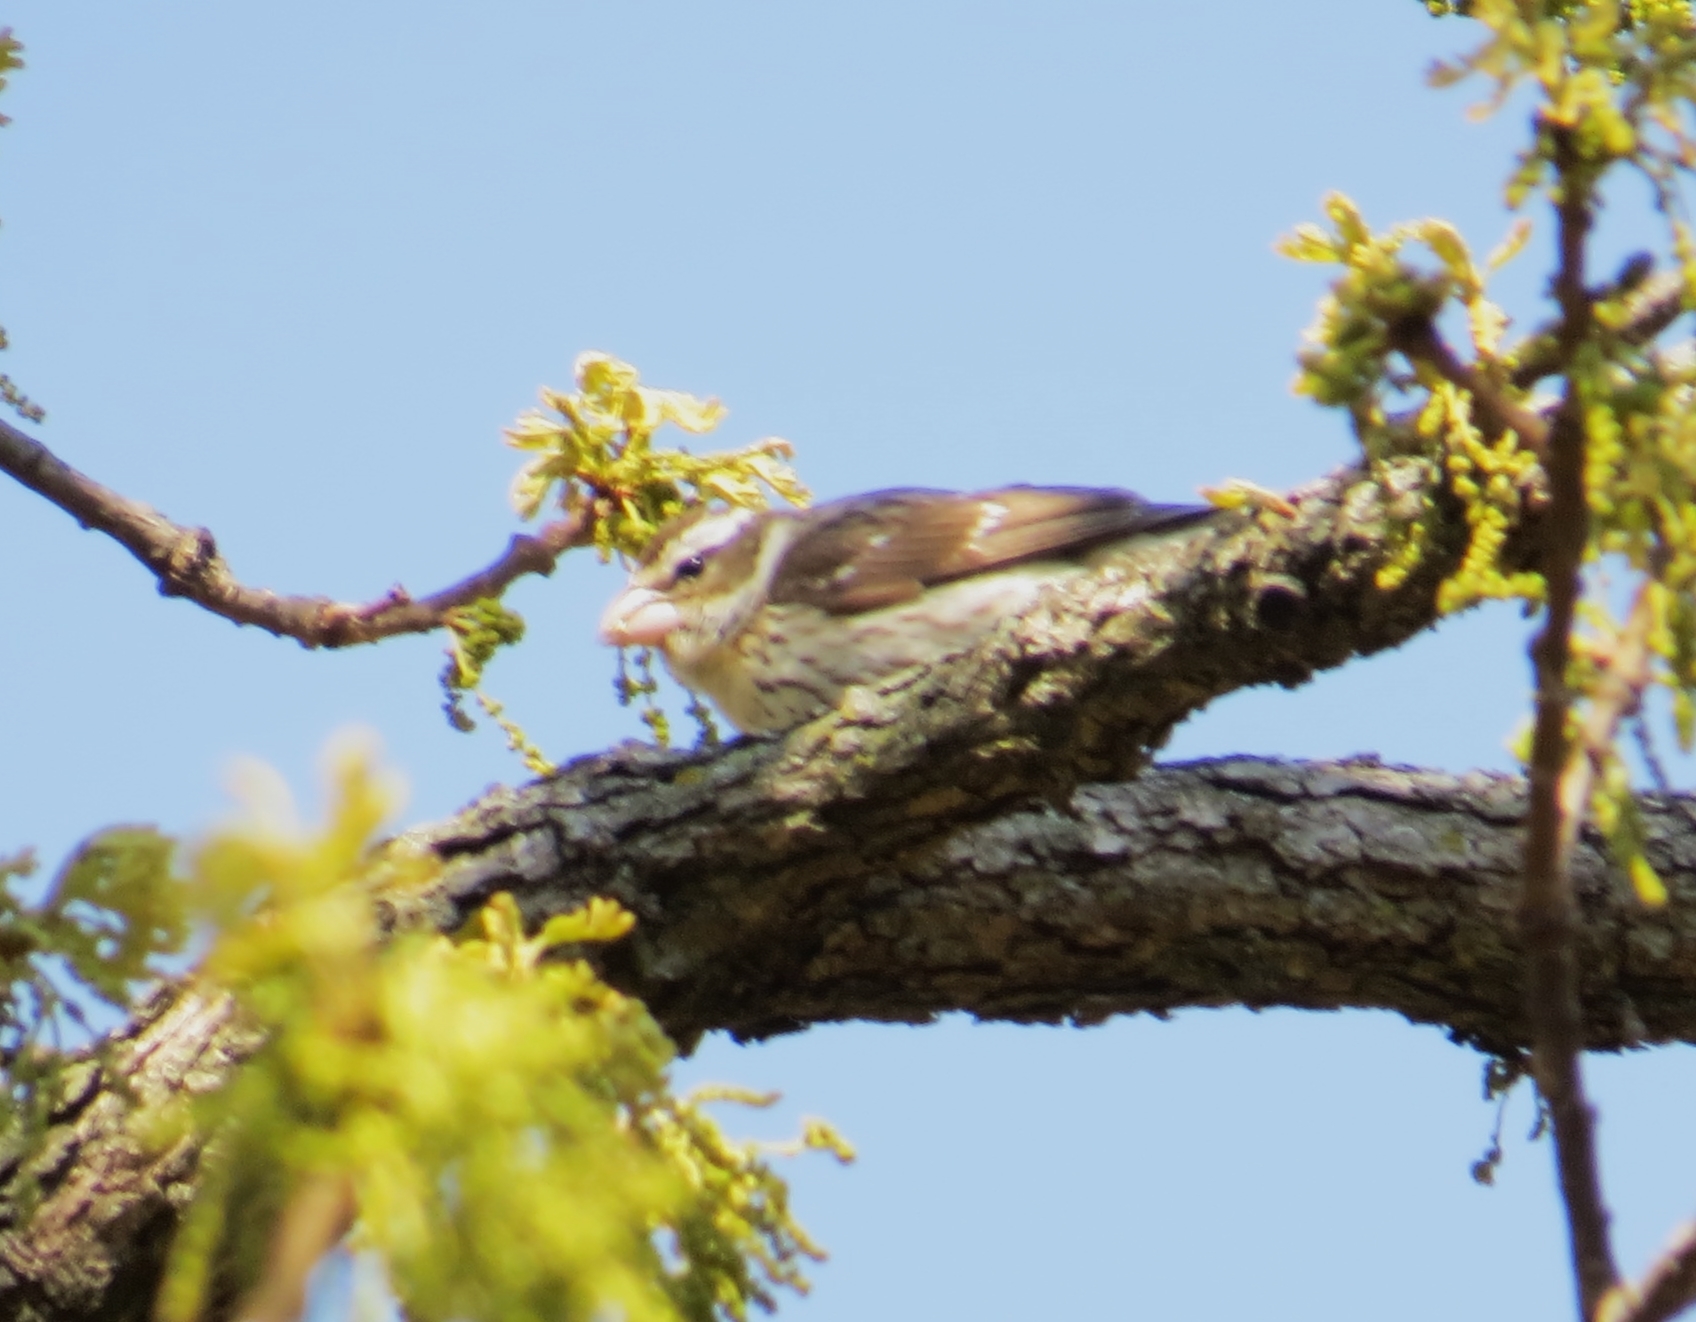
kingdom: Animalia
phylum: Chordata
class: Aves
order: Passeriformes
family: Cardinalidae
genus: Pheucticus
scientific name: Pheucticus ludovicianus
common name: Rose-breasted grosbeak
